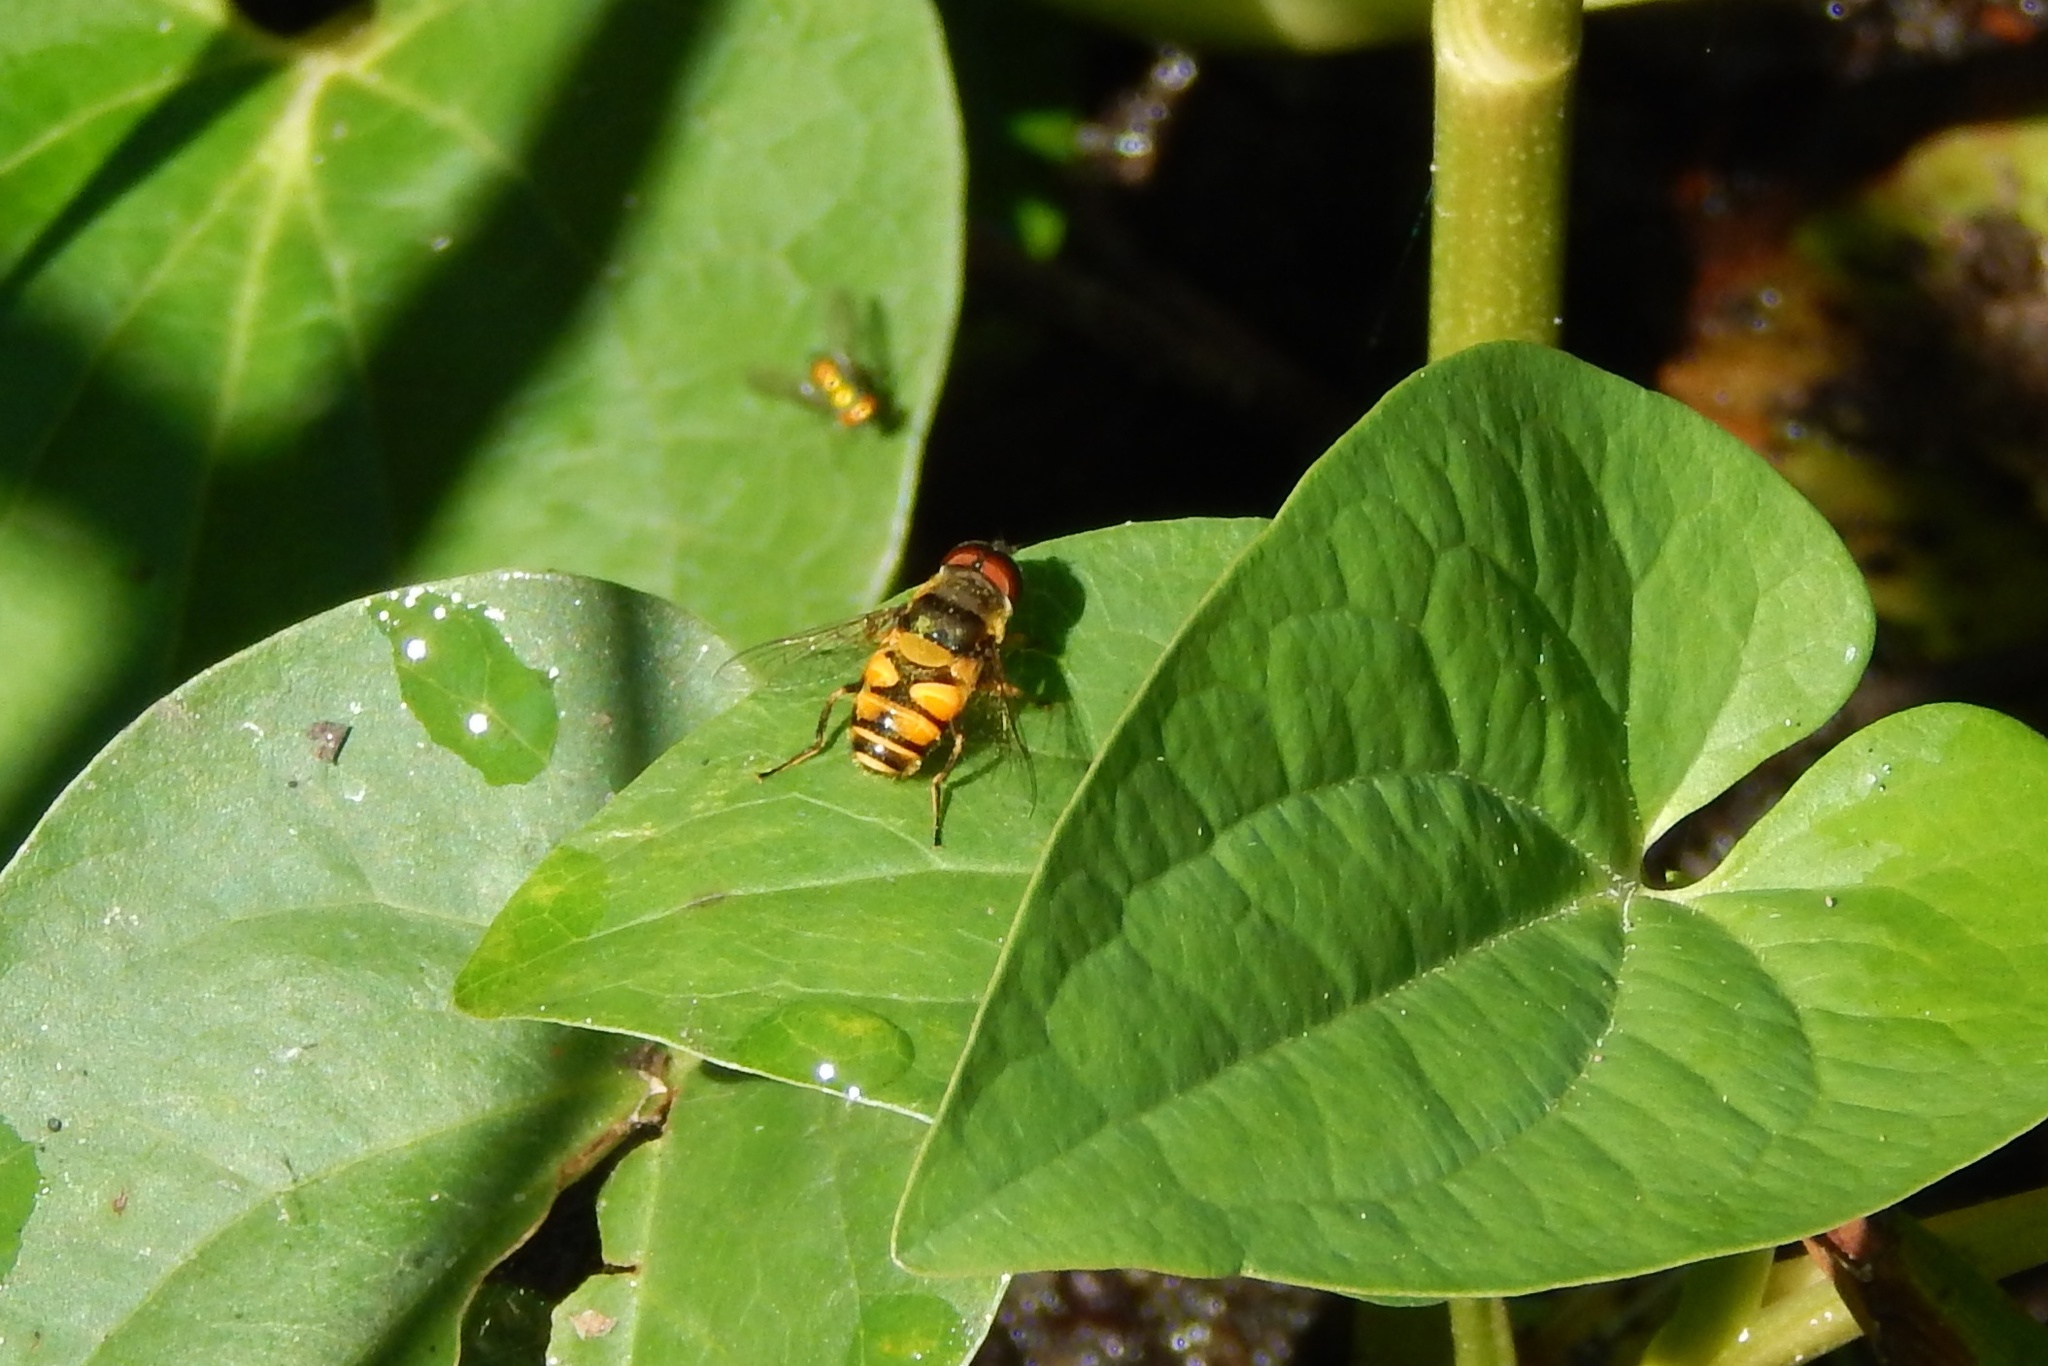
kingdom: Animalia
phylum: Arthropoda
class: Insecta
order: Diptera
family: Syrphidae
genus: Eristalis
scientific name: Eristalis transversa
